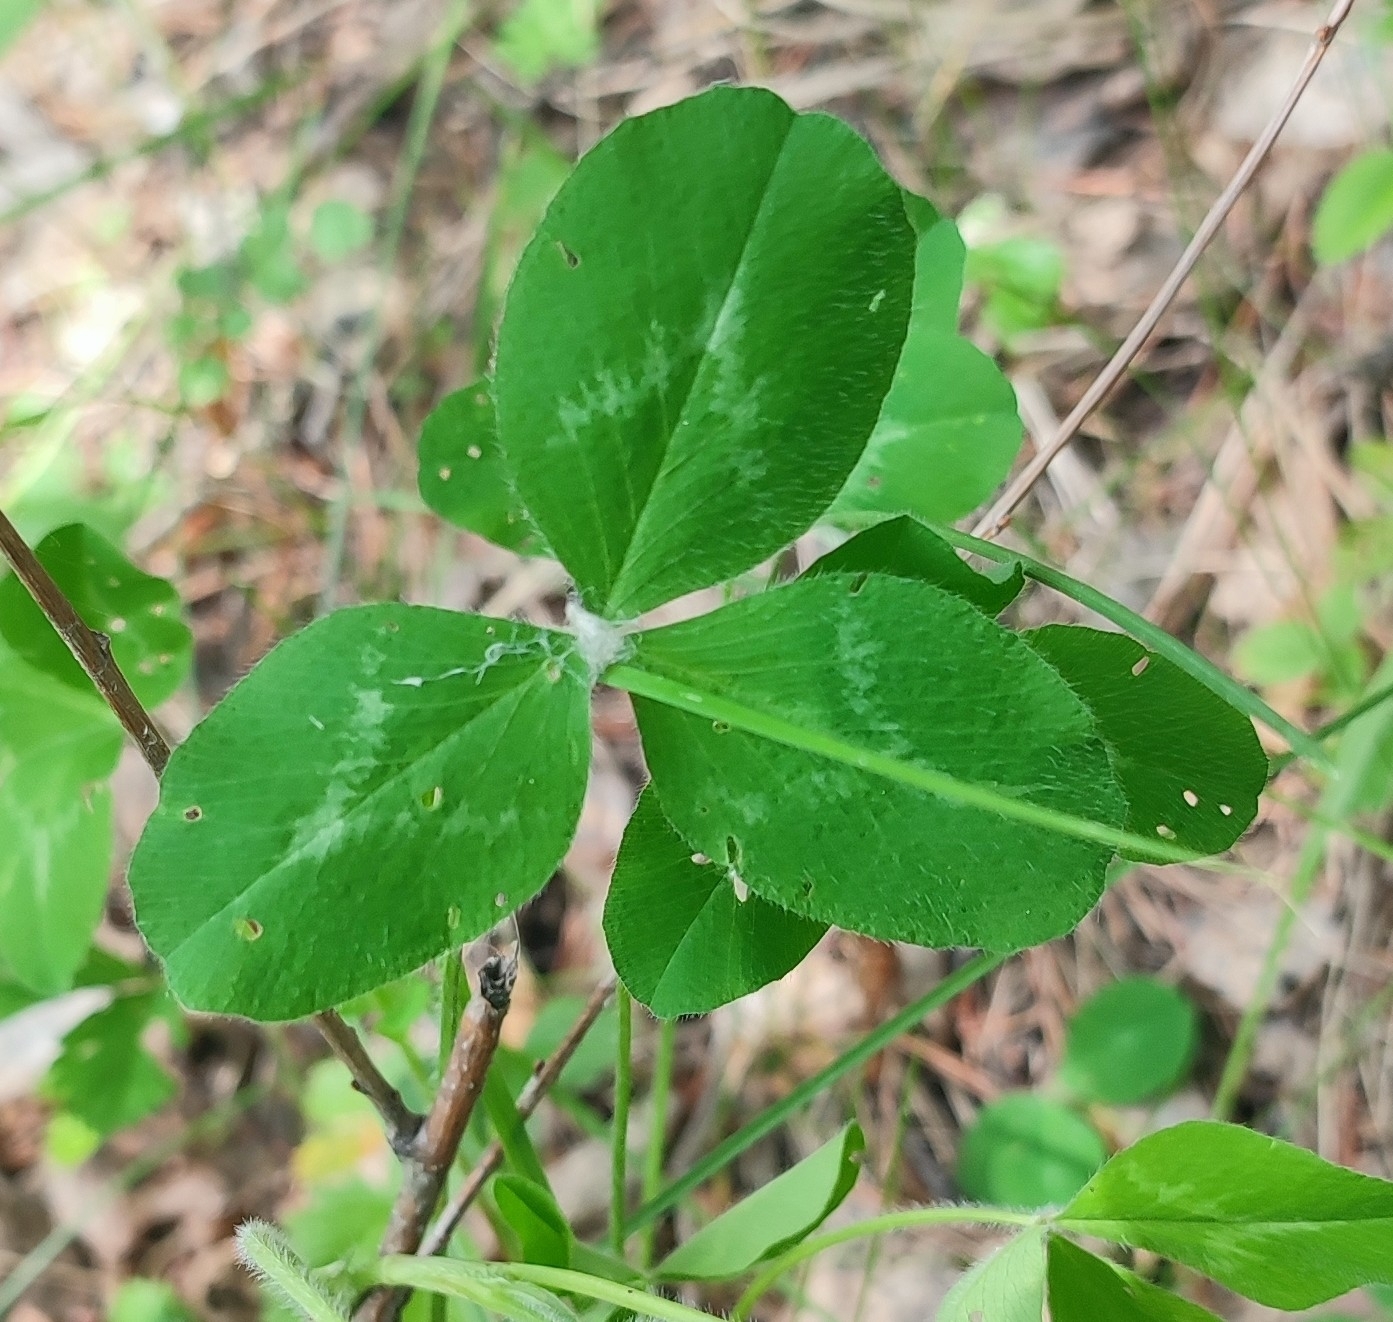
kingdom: Plantae
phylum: Tracheophyta
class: Magnoliopsida
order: Fabales
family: Fabaceae
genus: Trifolium
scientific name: Trifolium pratense
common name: Red clover
